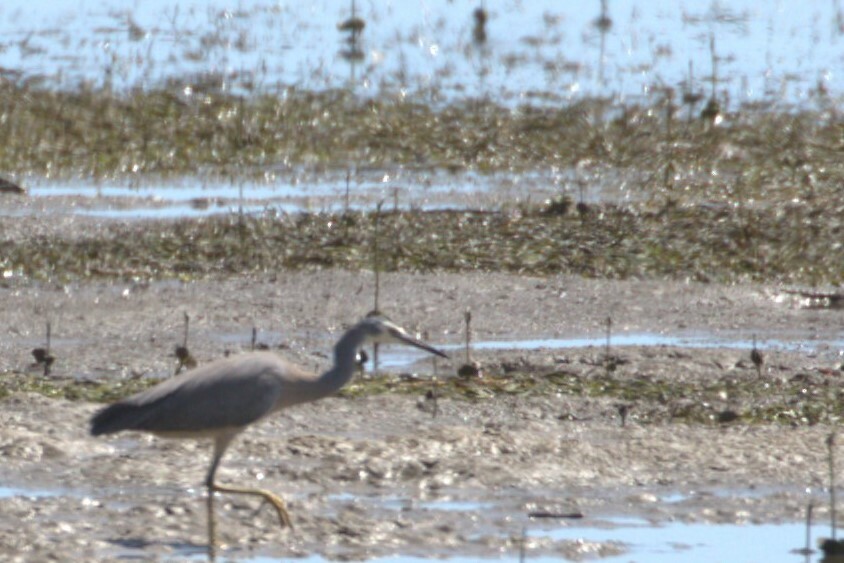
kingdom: Animalia
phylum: Chordata
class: Aves
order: Pelecaniformes
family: Ardeidae
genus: Egretta
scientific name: Egretta novaehollandiae
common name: White-faced heron
